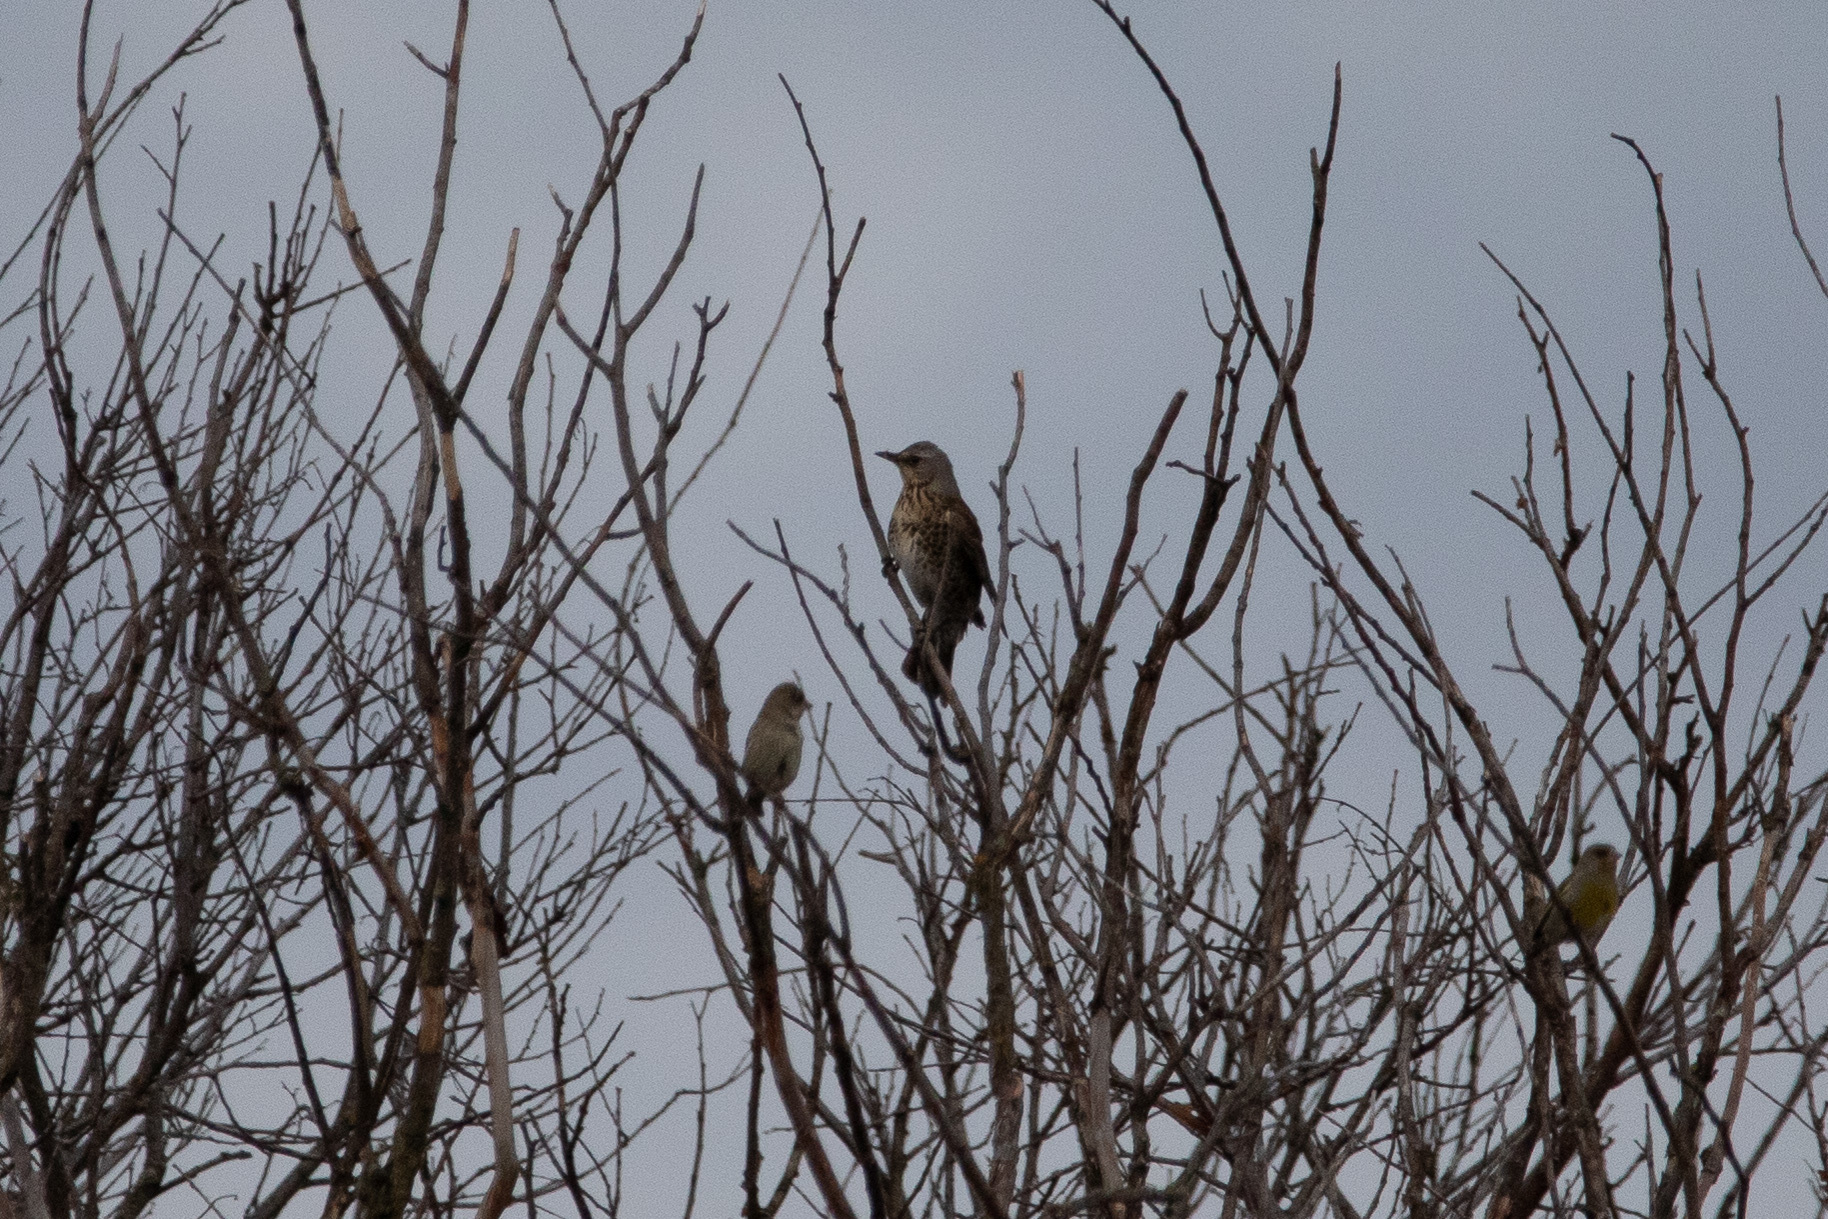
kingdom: Animalia
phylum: Chordata
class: Aves
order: Passeriformes
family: Turdidae
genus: Turdus
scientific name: Turdus pilaris
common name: Fieldfare
